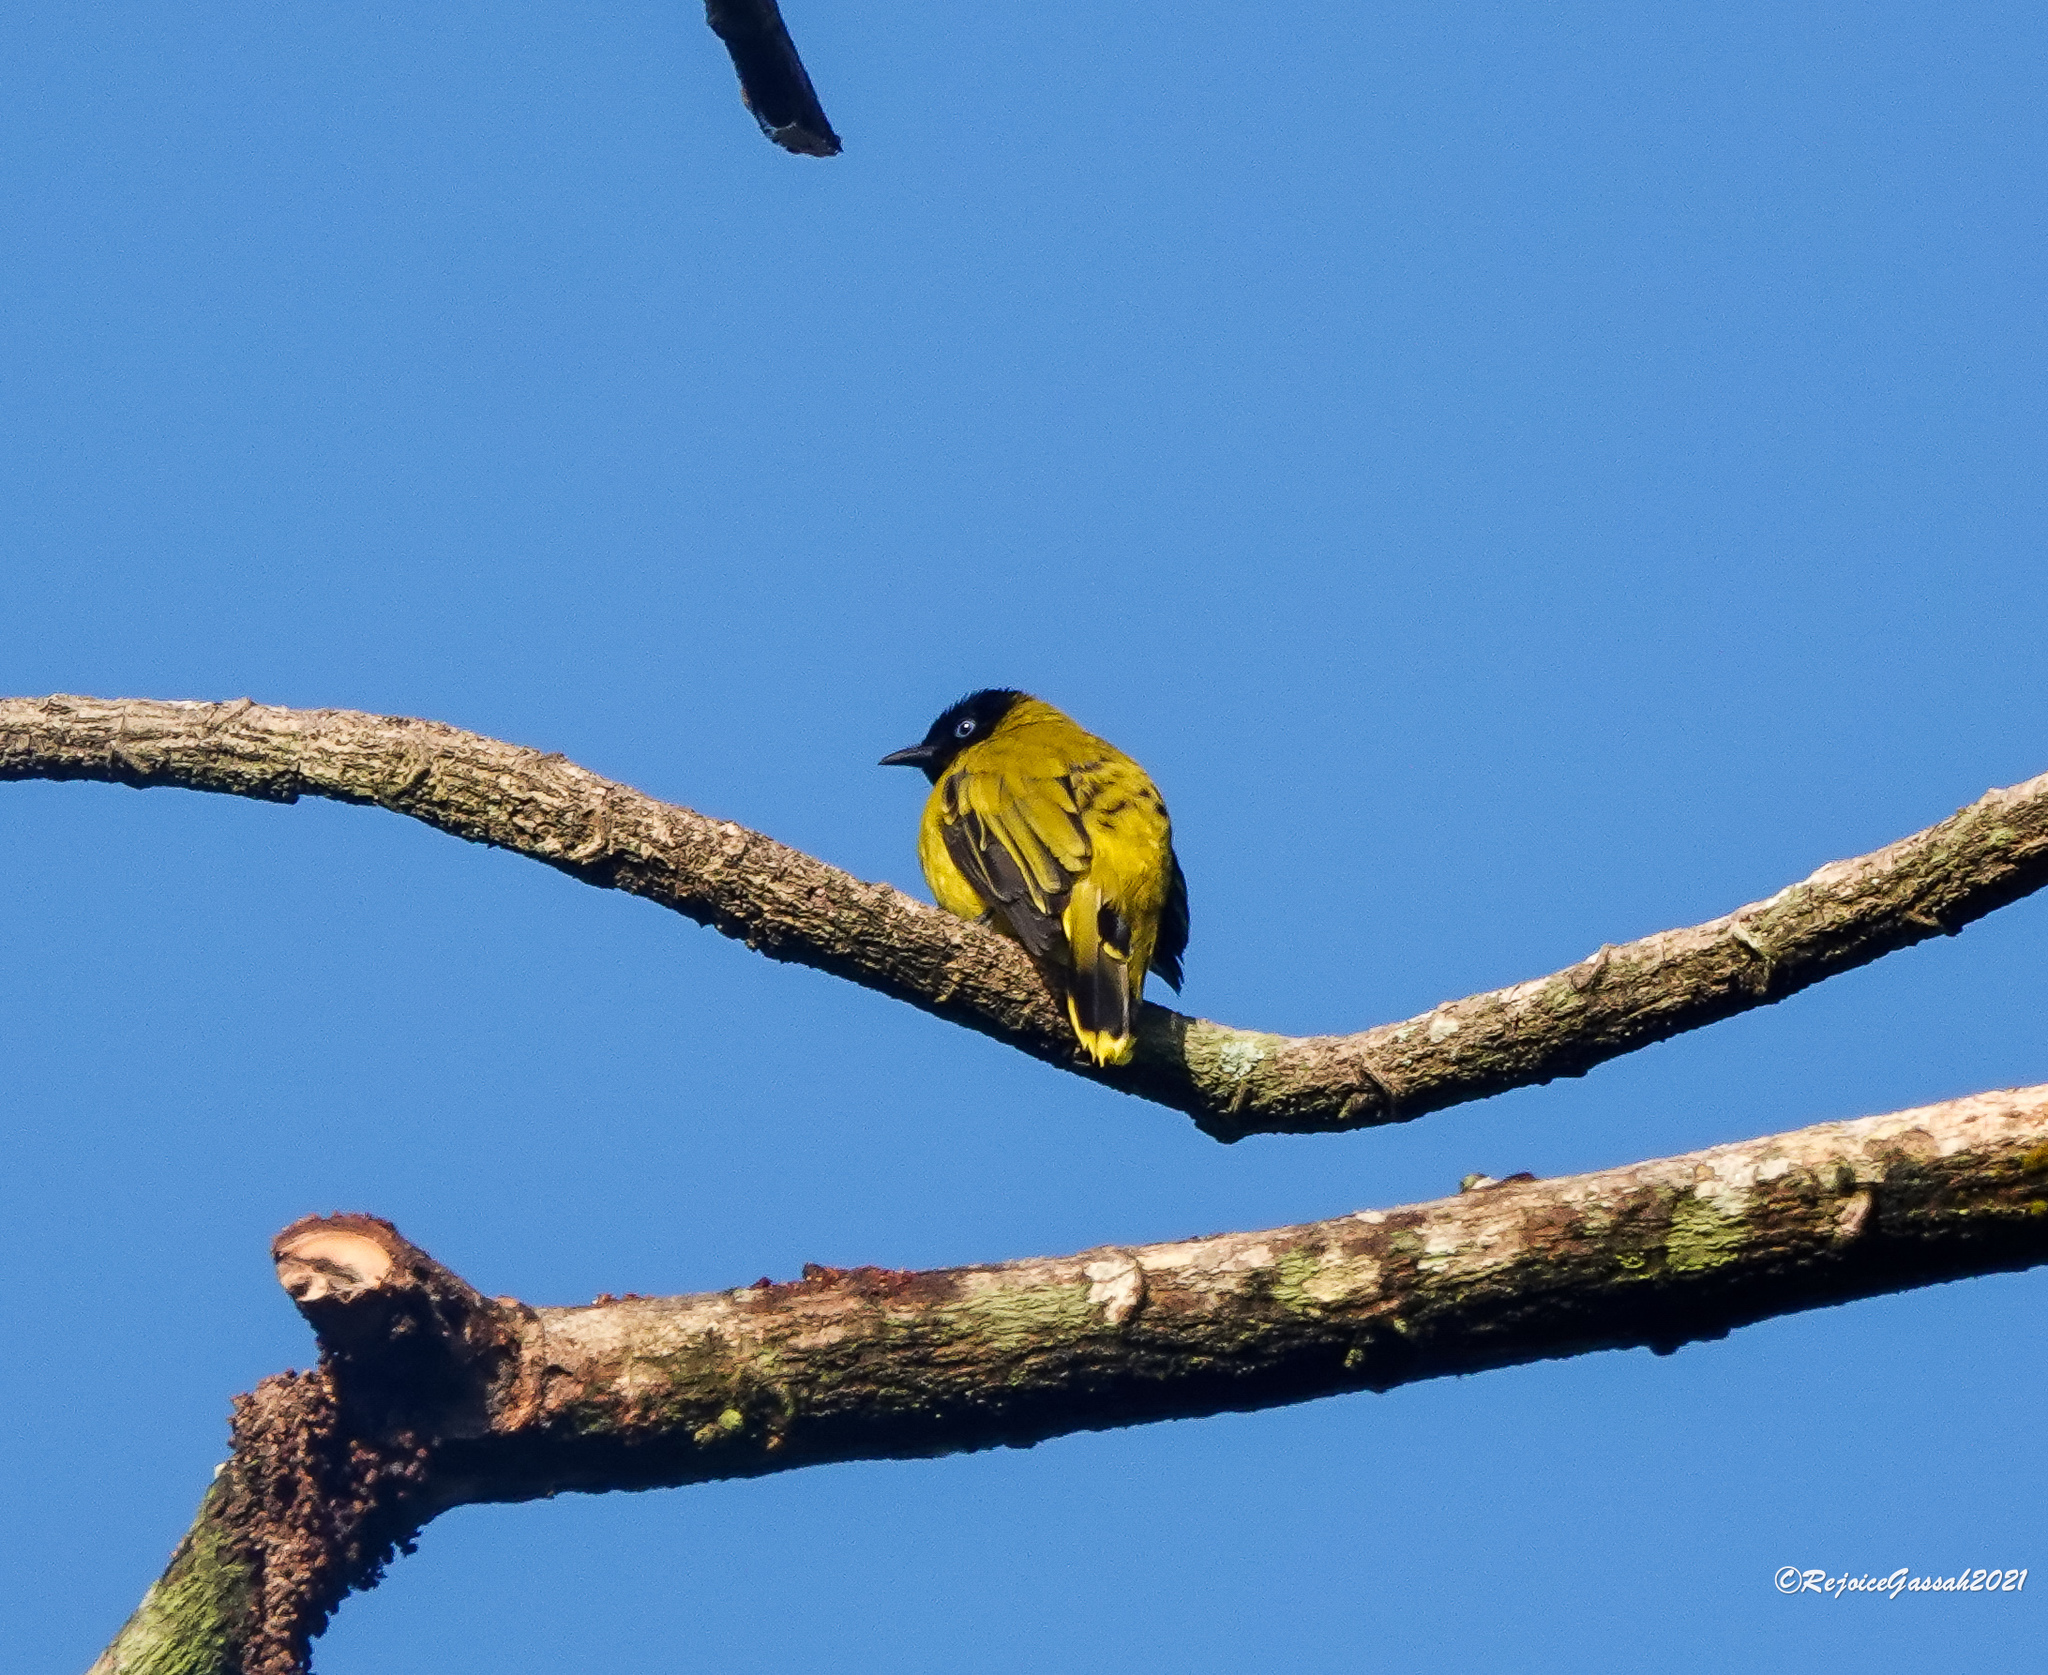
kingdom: Animalia
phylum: Chordata
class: Aves
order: Passeriformes
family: Pycnonotidae
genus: Microtarsus
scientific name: Microtarsus
